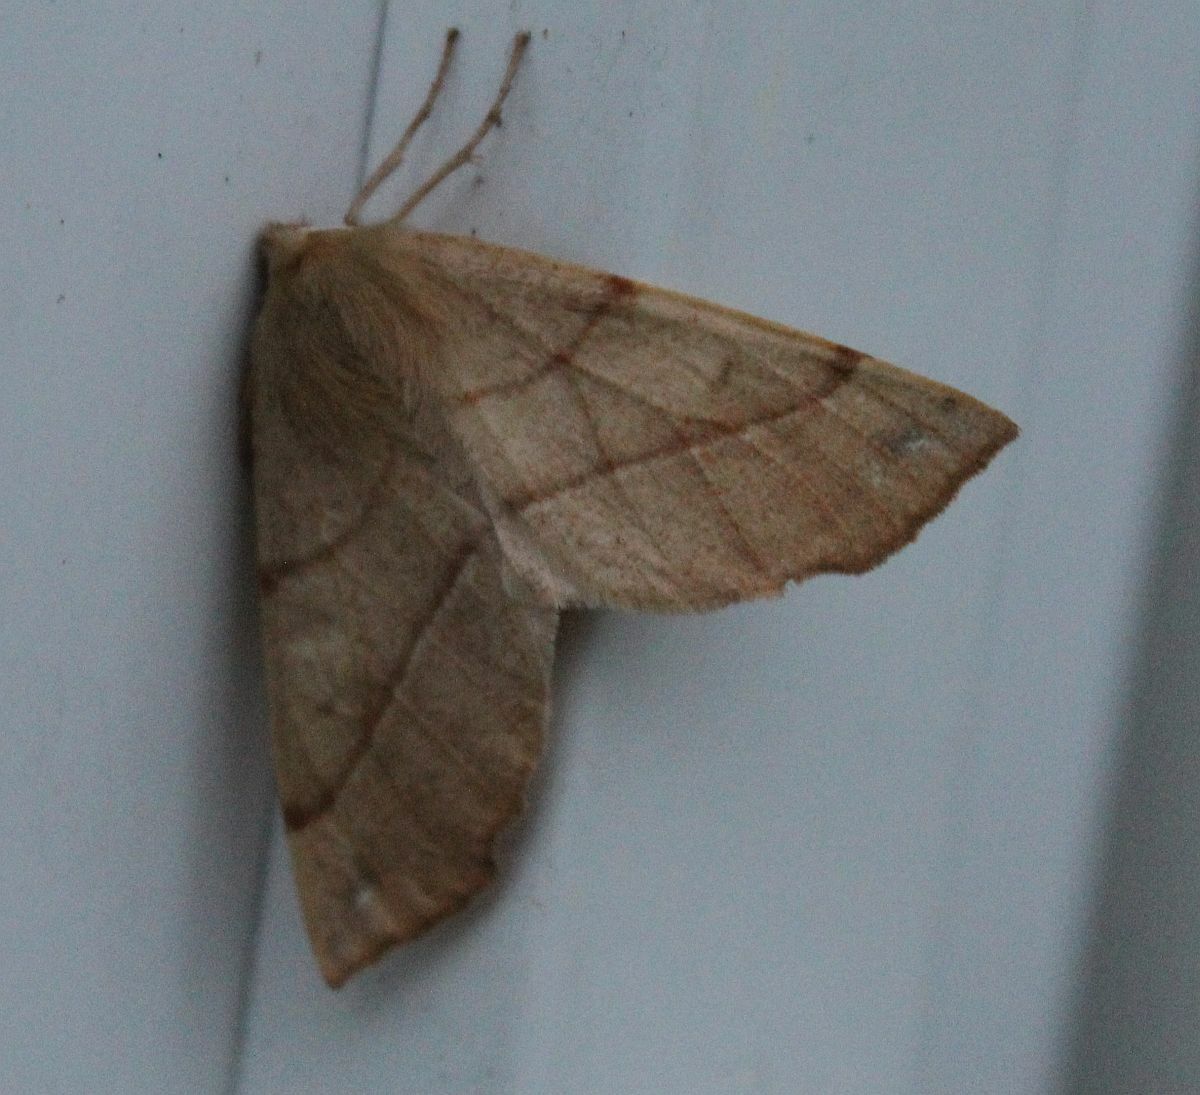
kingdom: Animalia
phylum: Arthropoda
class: Insecta
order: Lepidoptera
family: Geometridae
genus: Colotois
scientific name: Colotois pennaria
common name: Feathered thorn
